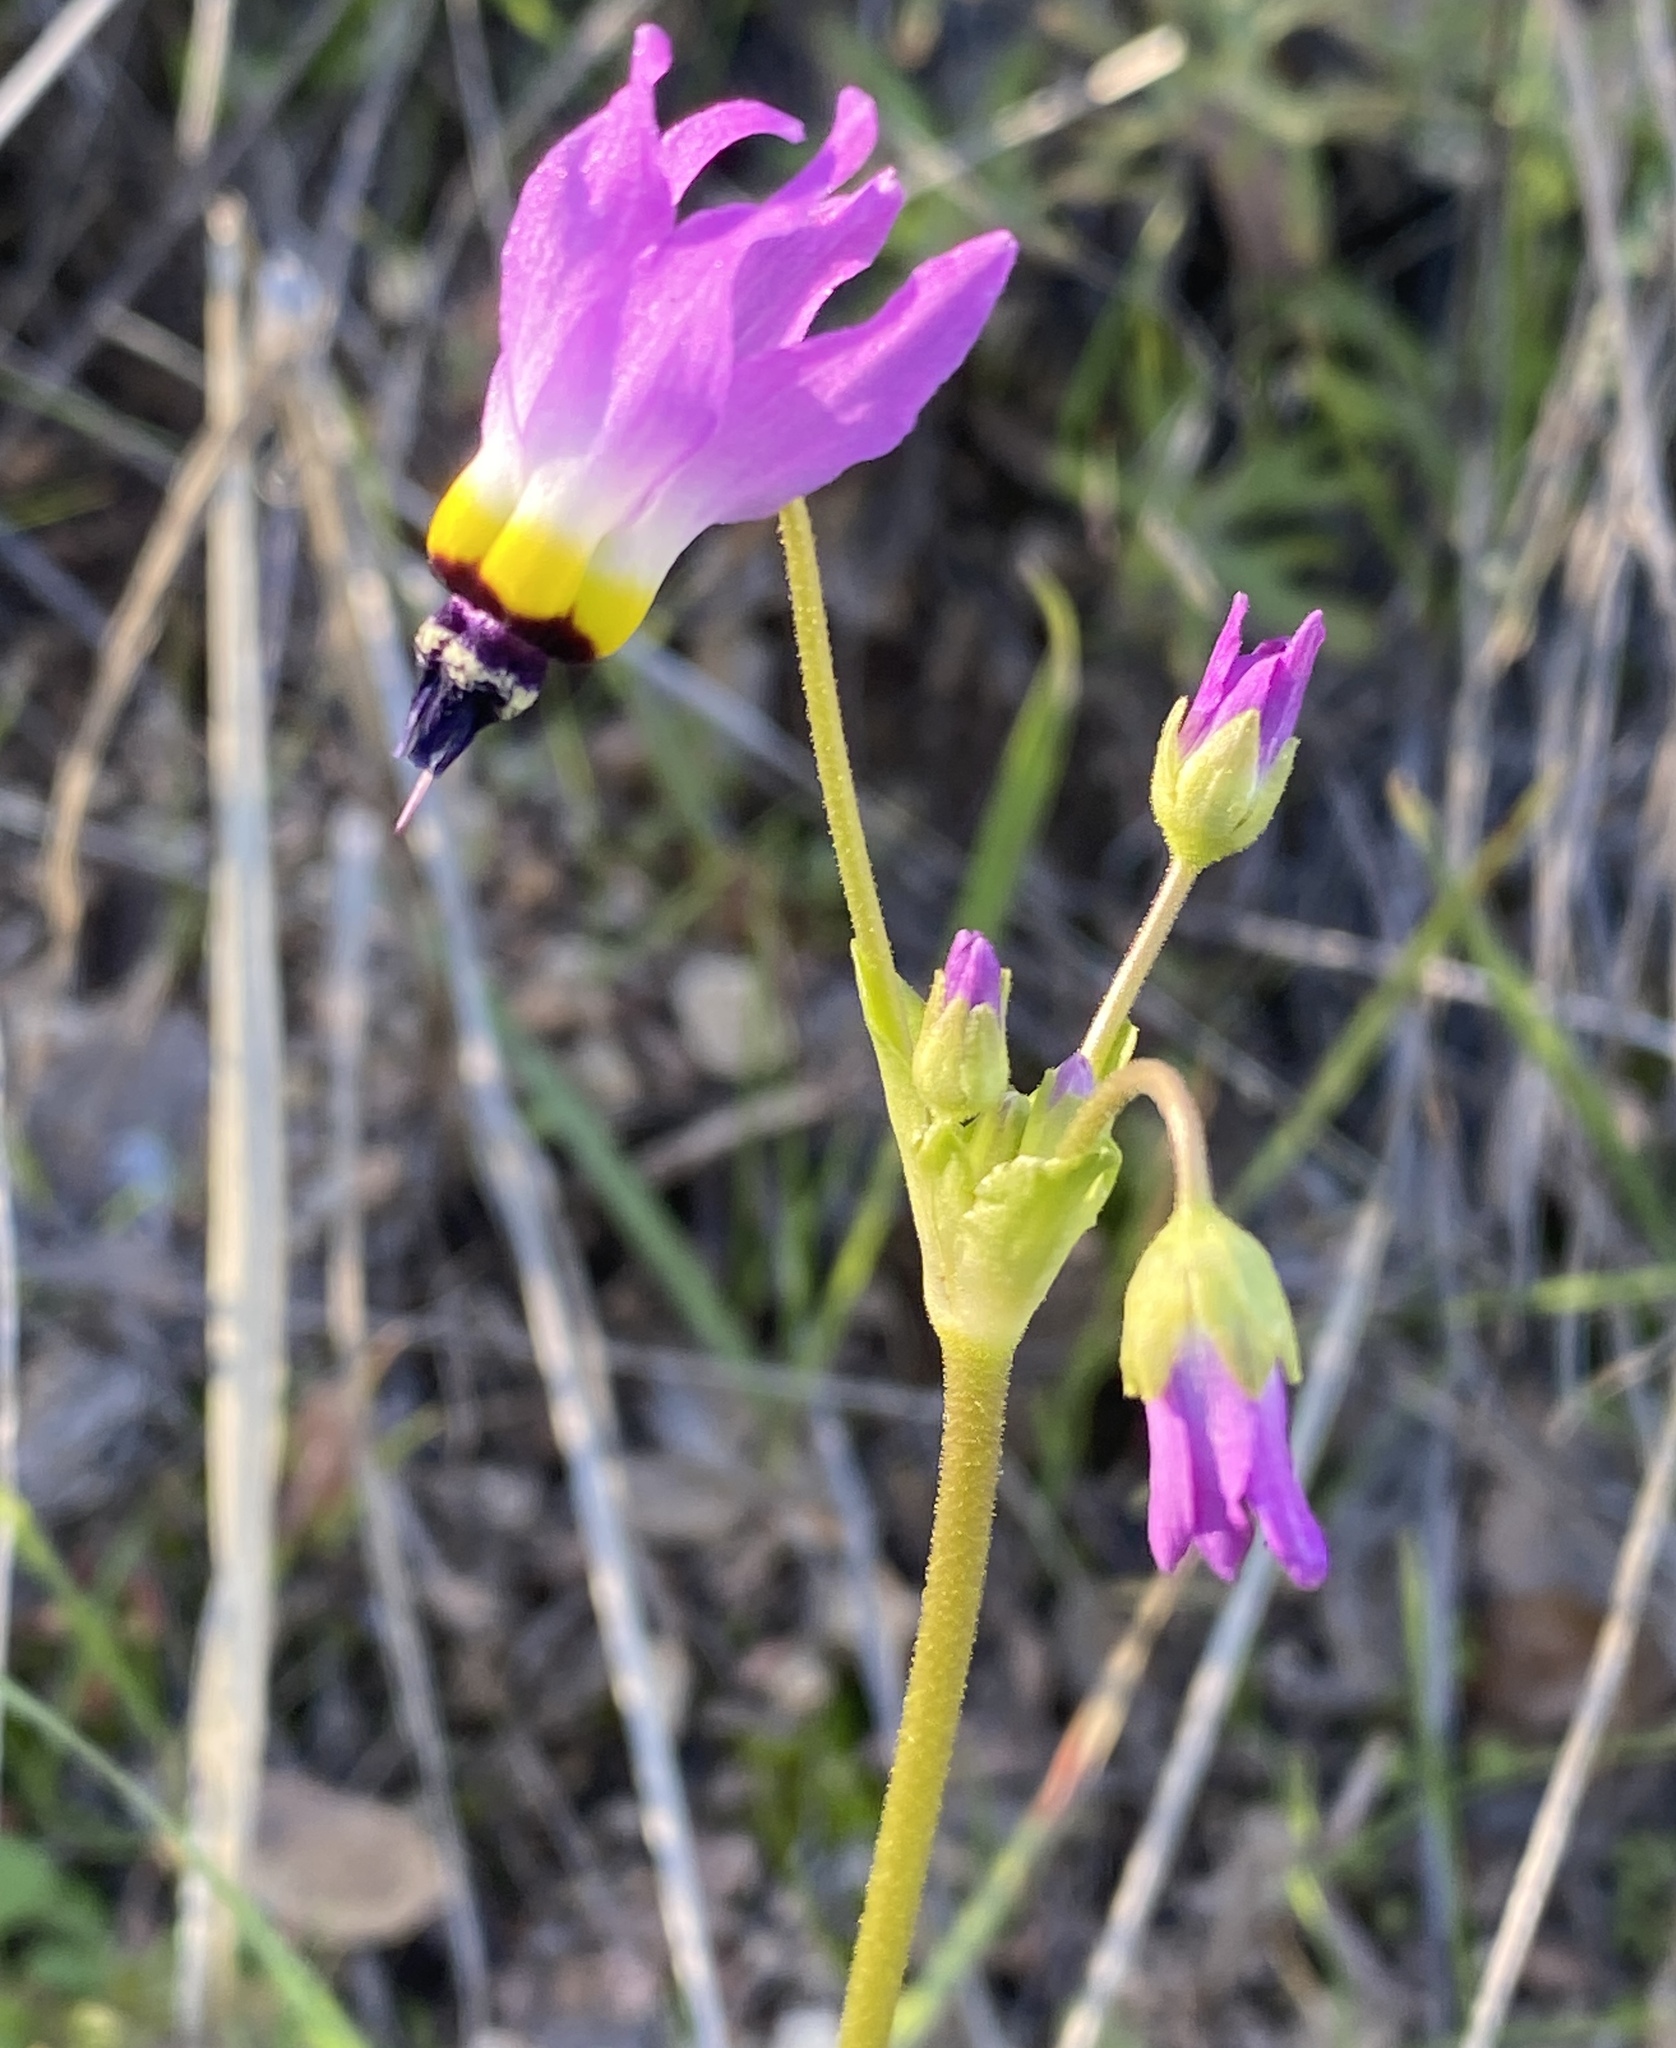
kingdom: Plantae
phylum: Tracheophyta
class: Magnoliopsida
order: Ericales
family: Primulaceae
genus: Dodecatheon
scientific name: Dodecatheon clevelandii
